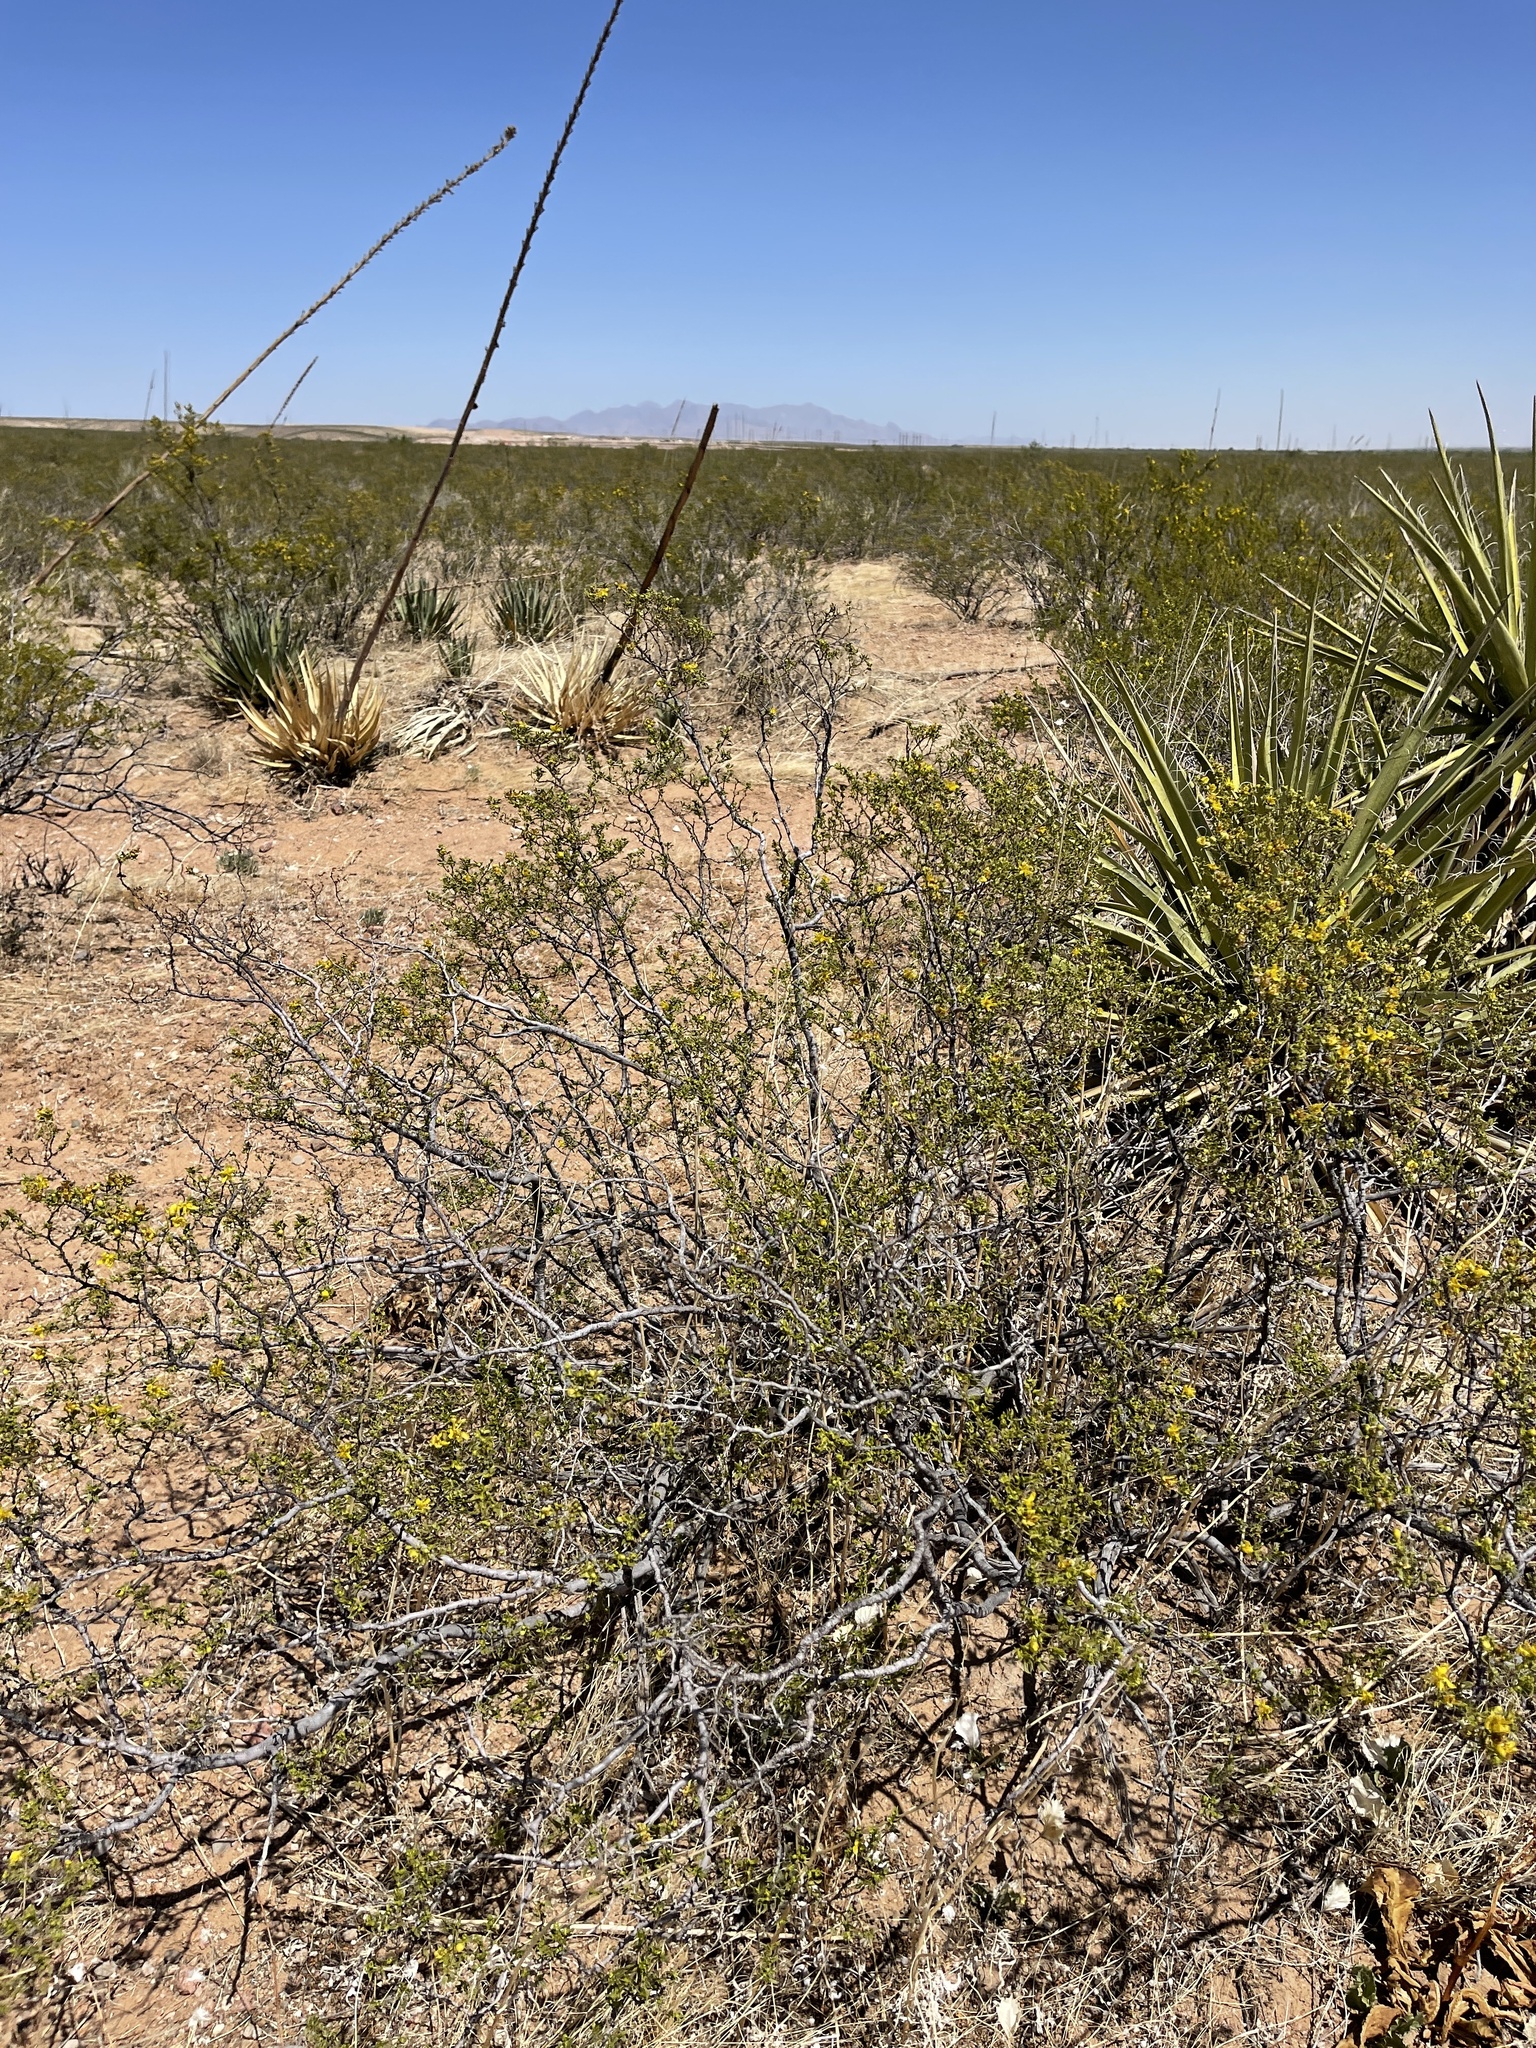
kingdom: Plantae
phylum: Tracheophyta
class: Magnoliopsida
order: Zygophyllales
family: Zygophyllaceae
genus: Larrea
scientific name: Larrea tridentata
